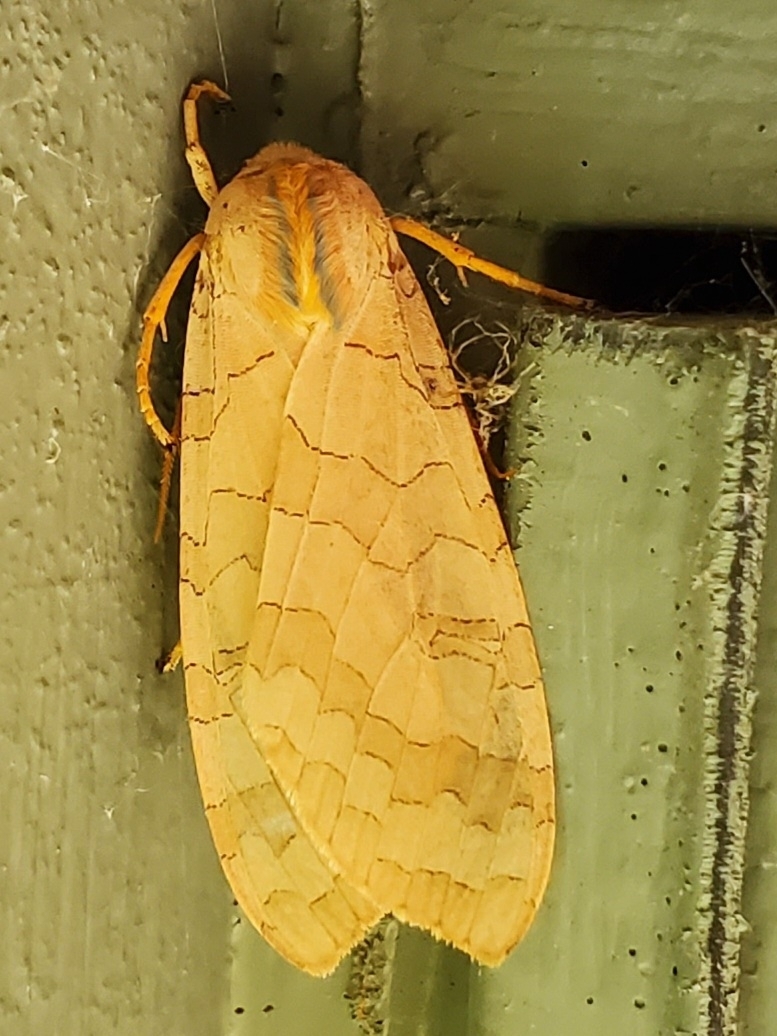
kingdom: Animalia
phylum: Arthropoda
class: Insecta
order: Lepidoptera
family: Erebidae
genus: Halysidota
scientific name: Halysidota
